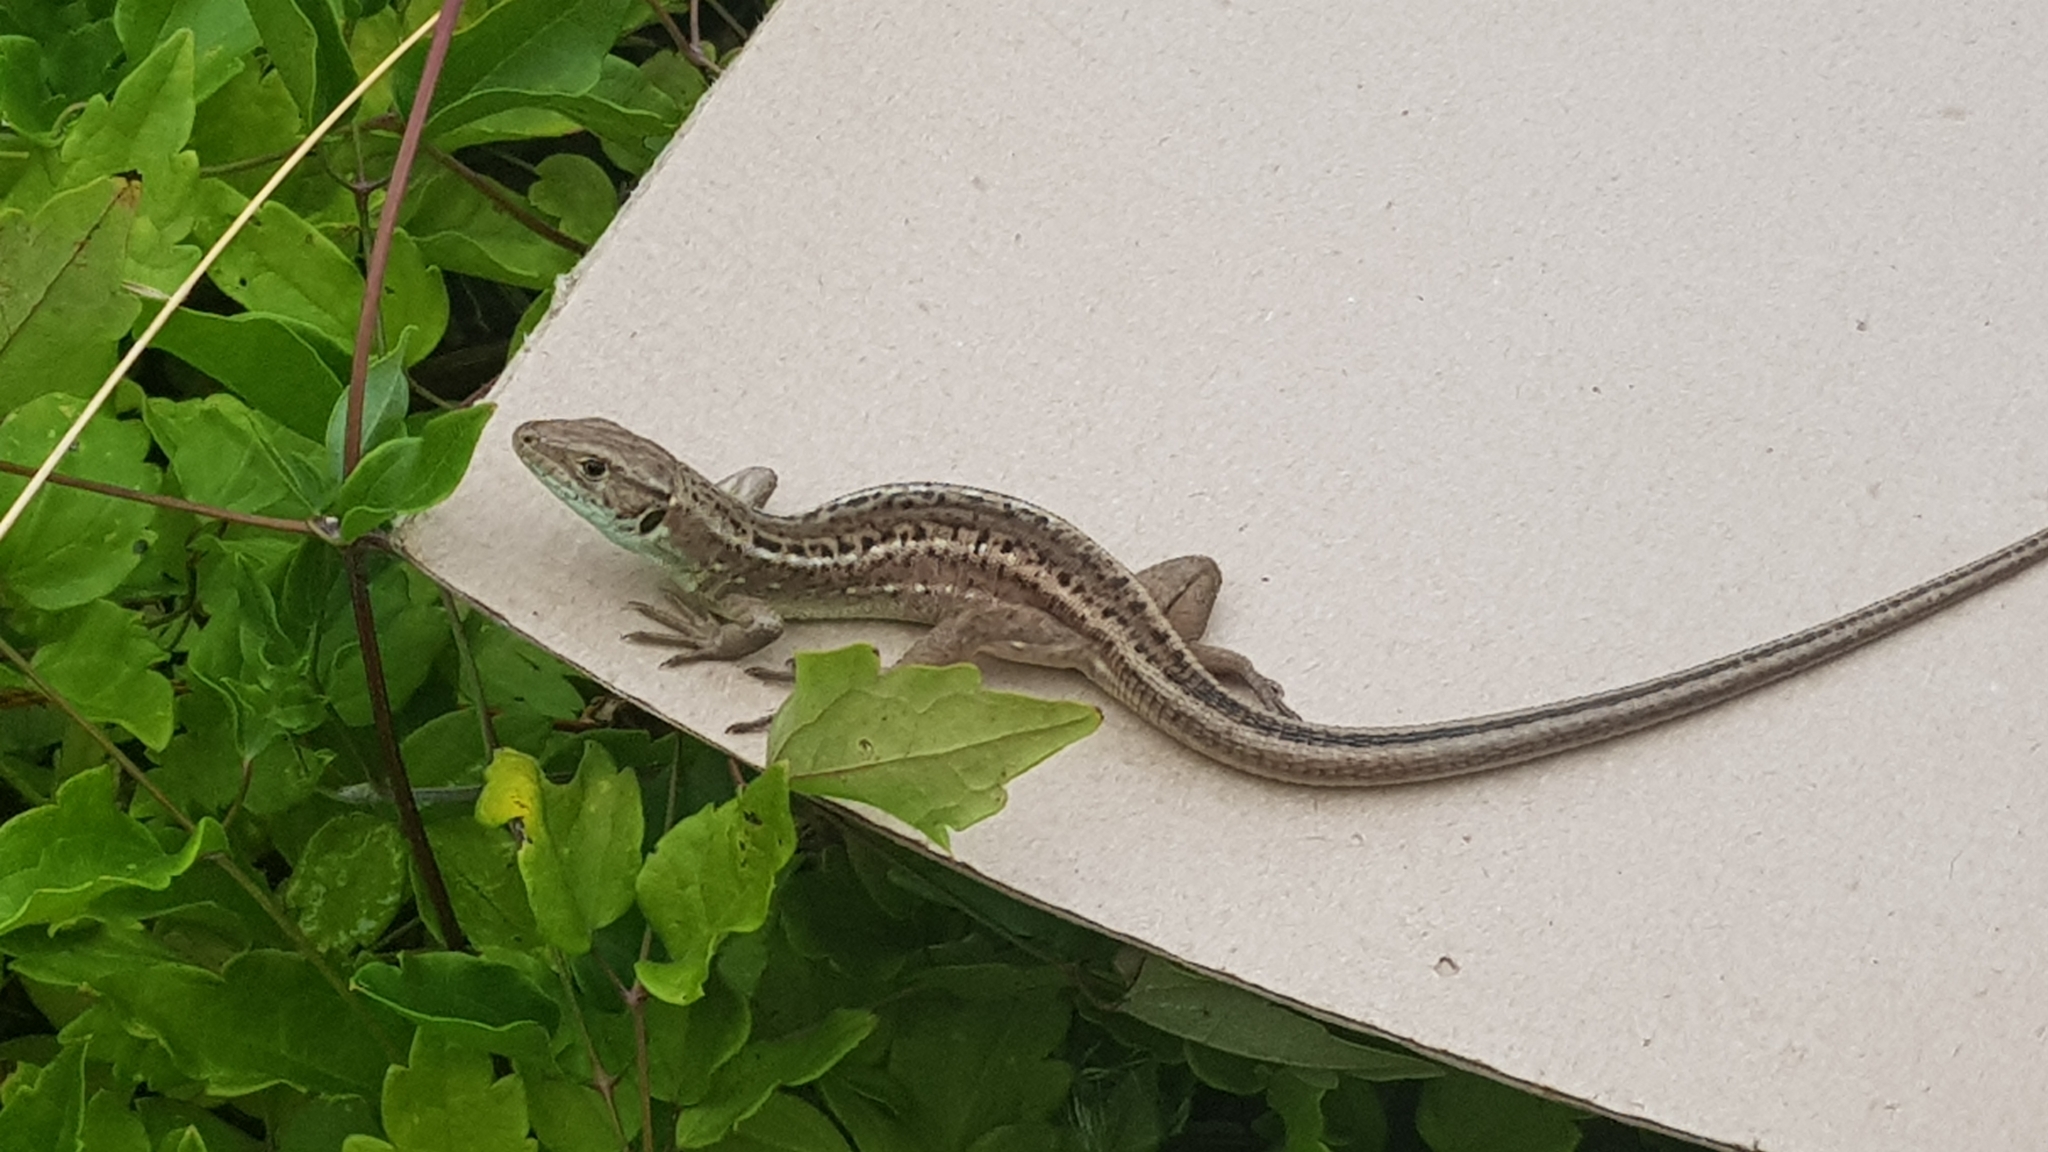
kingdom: Animalia
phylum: Chordata
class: Squamata
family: Lacertidae
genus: Lacerta
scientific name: Lacerta viridis
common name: European green lizard
